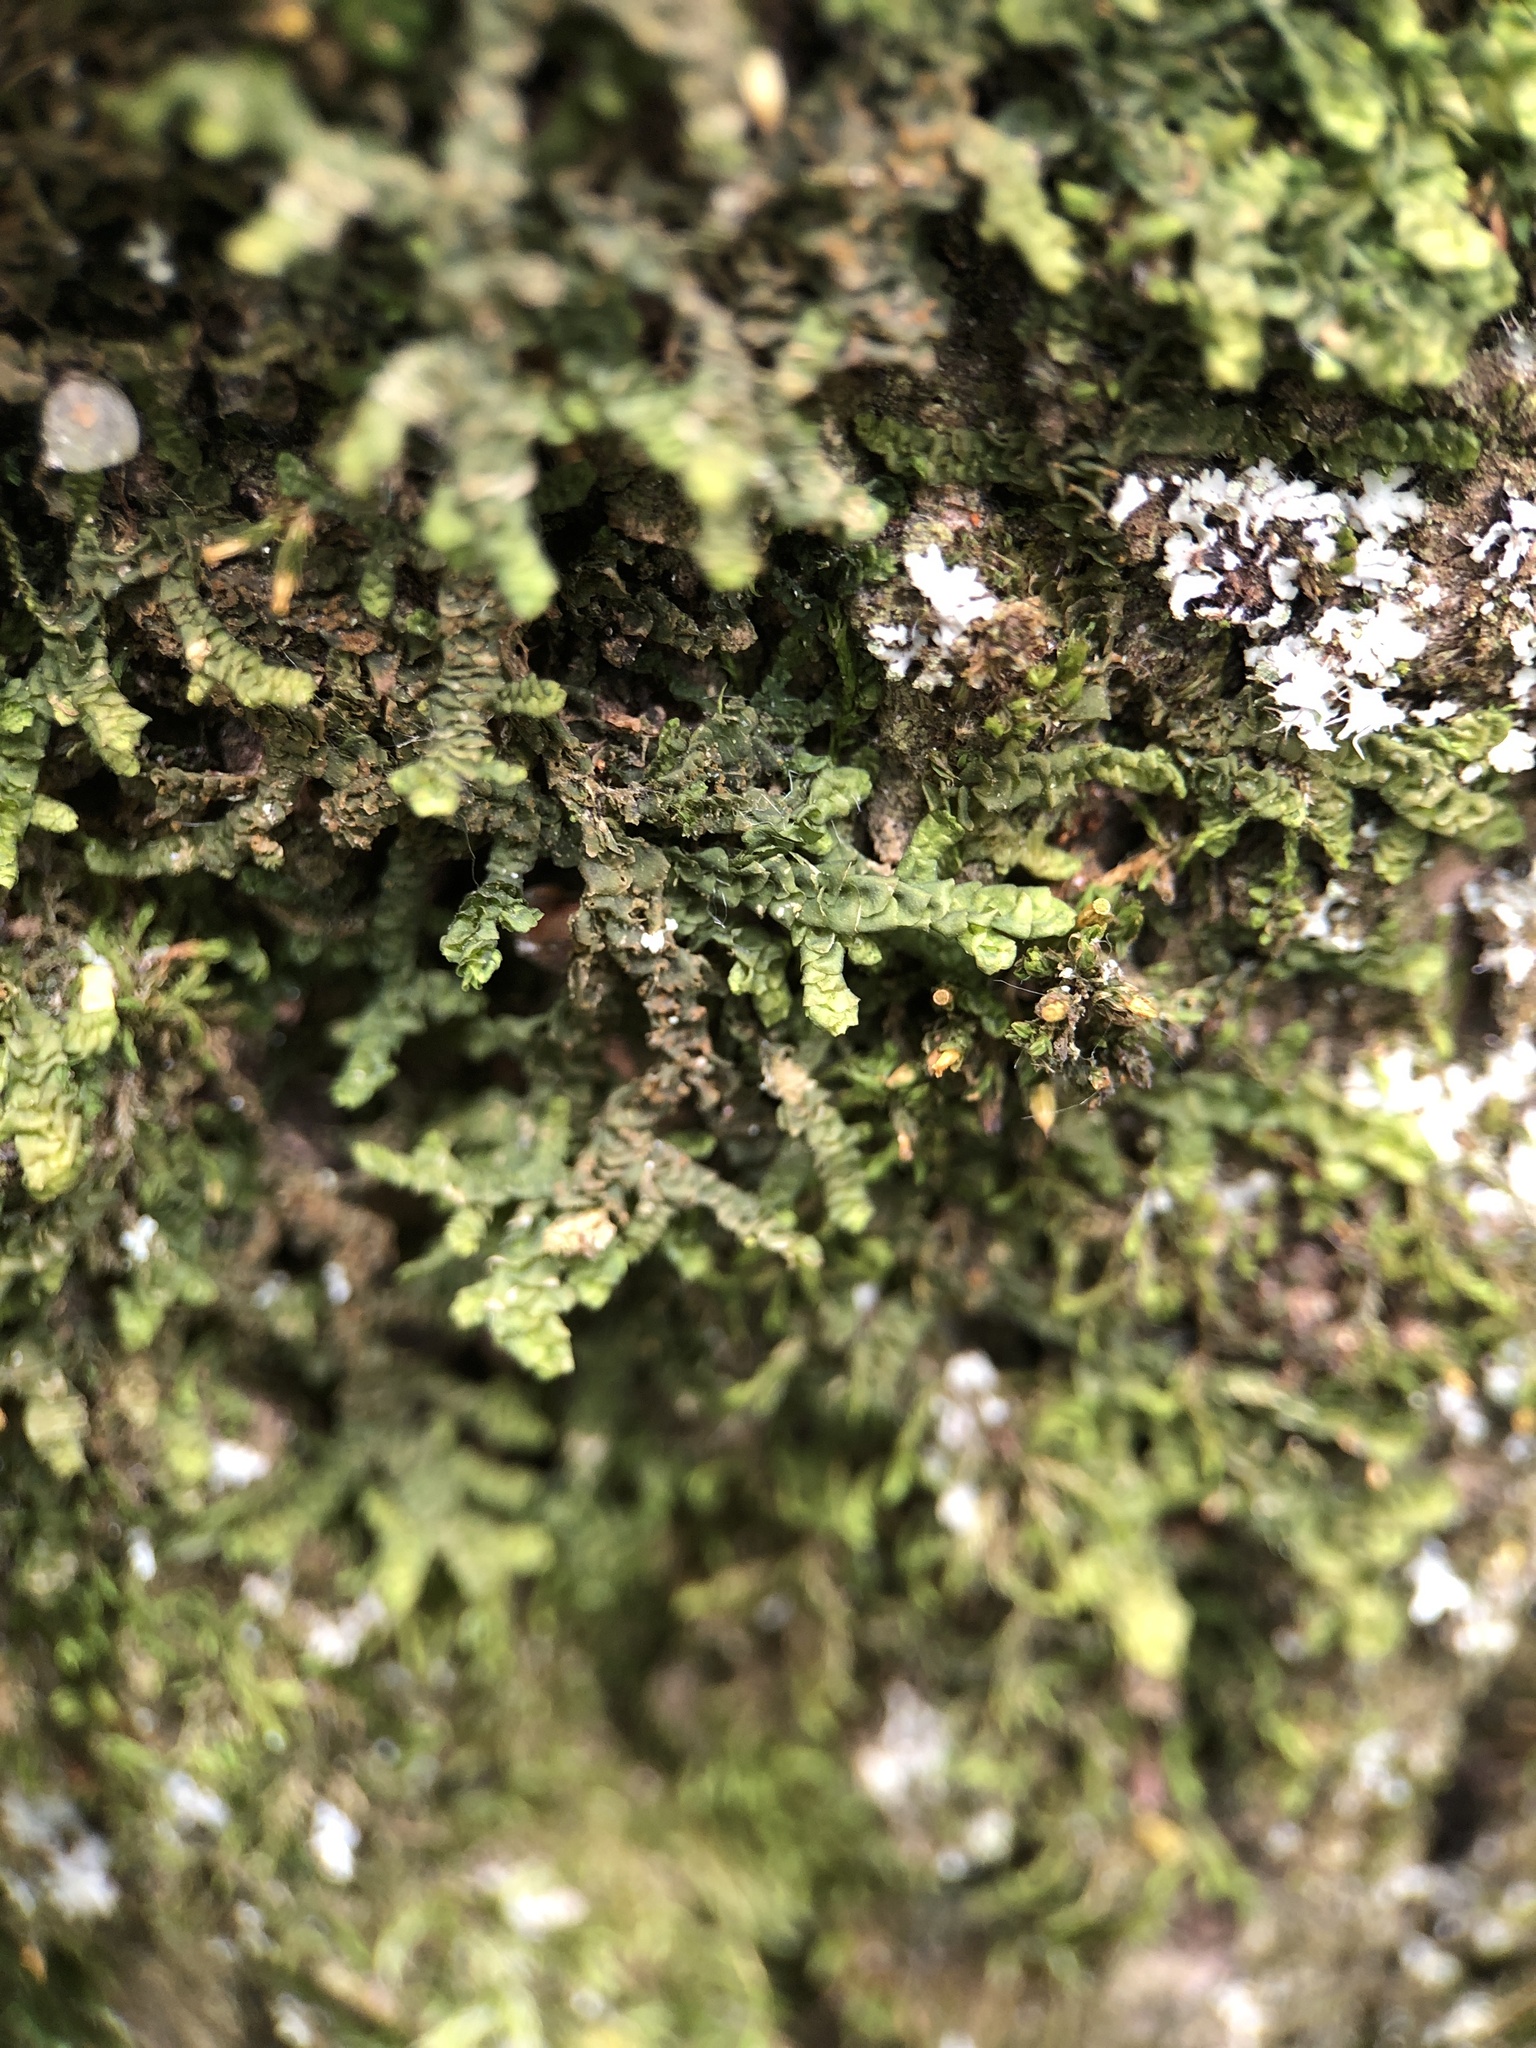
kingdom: Plantae
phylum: Marchantiophyta
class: Jungermanniopsida
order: Porellales
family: Porellaceae
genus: Porella
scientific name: Porella platyphylla
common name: Wall scalewort
